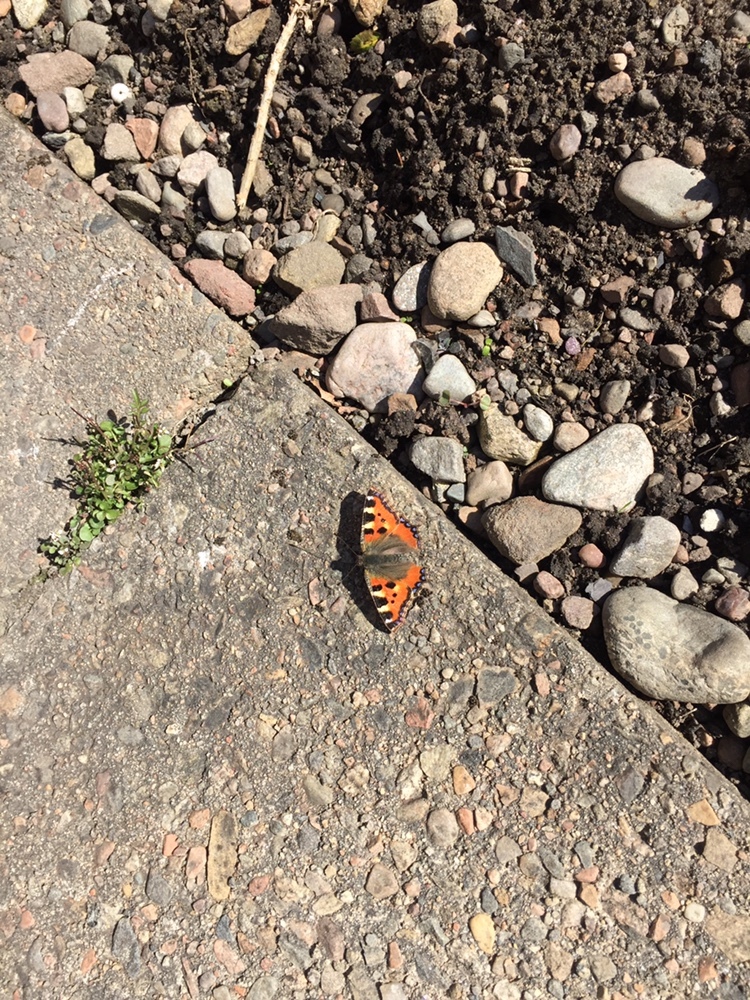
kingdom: Animalia
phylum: Arthropoda
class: Insecta
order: Lepidoptera
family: Nymphalidae
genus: Aglais
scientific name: Aglais urticae
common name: Small tortoiseshell
